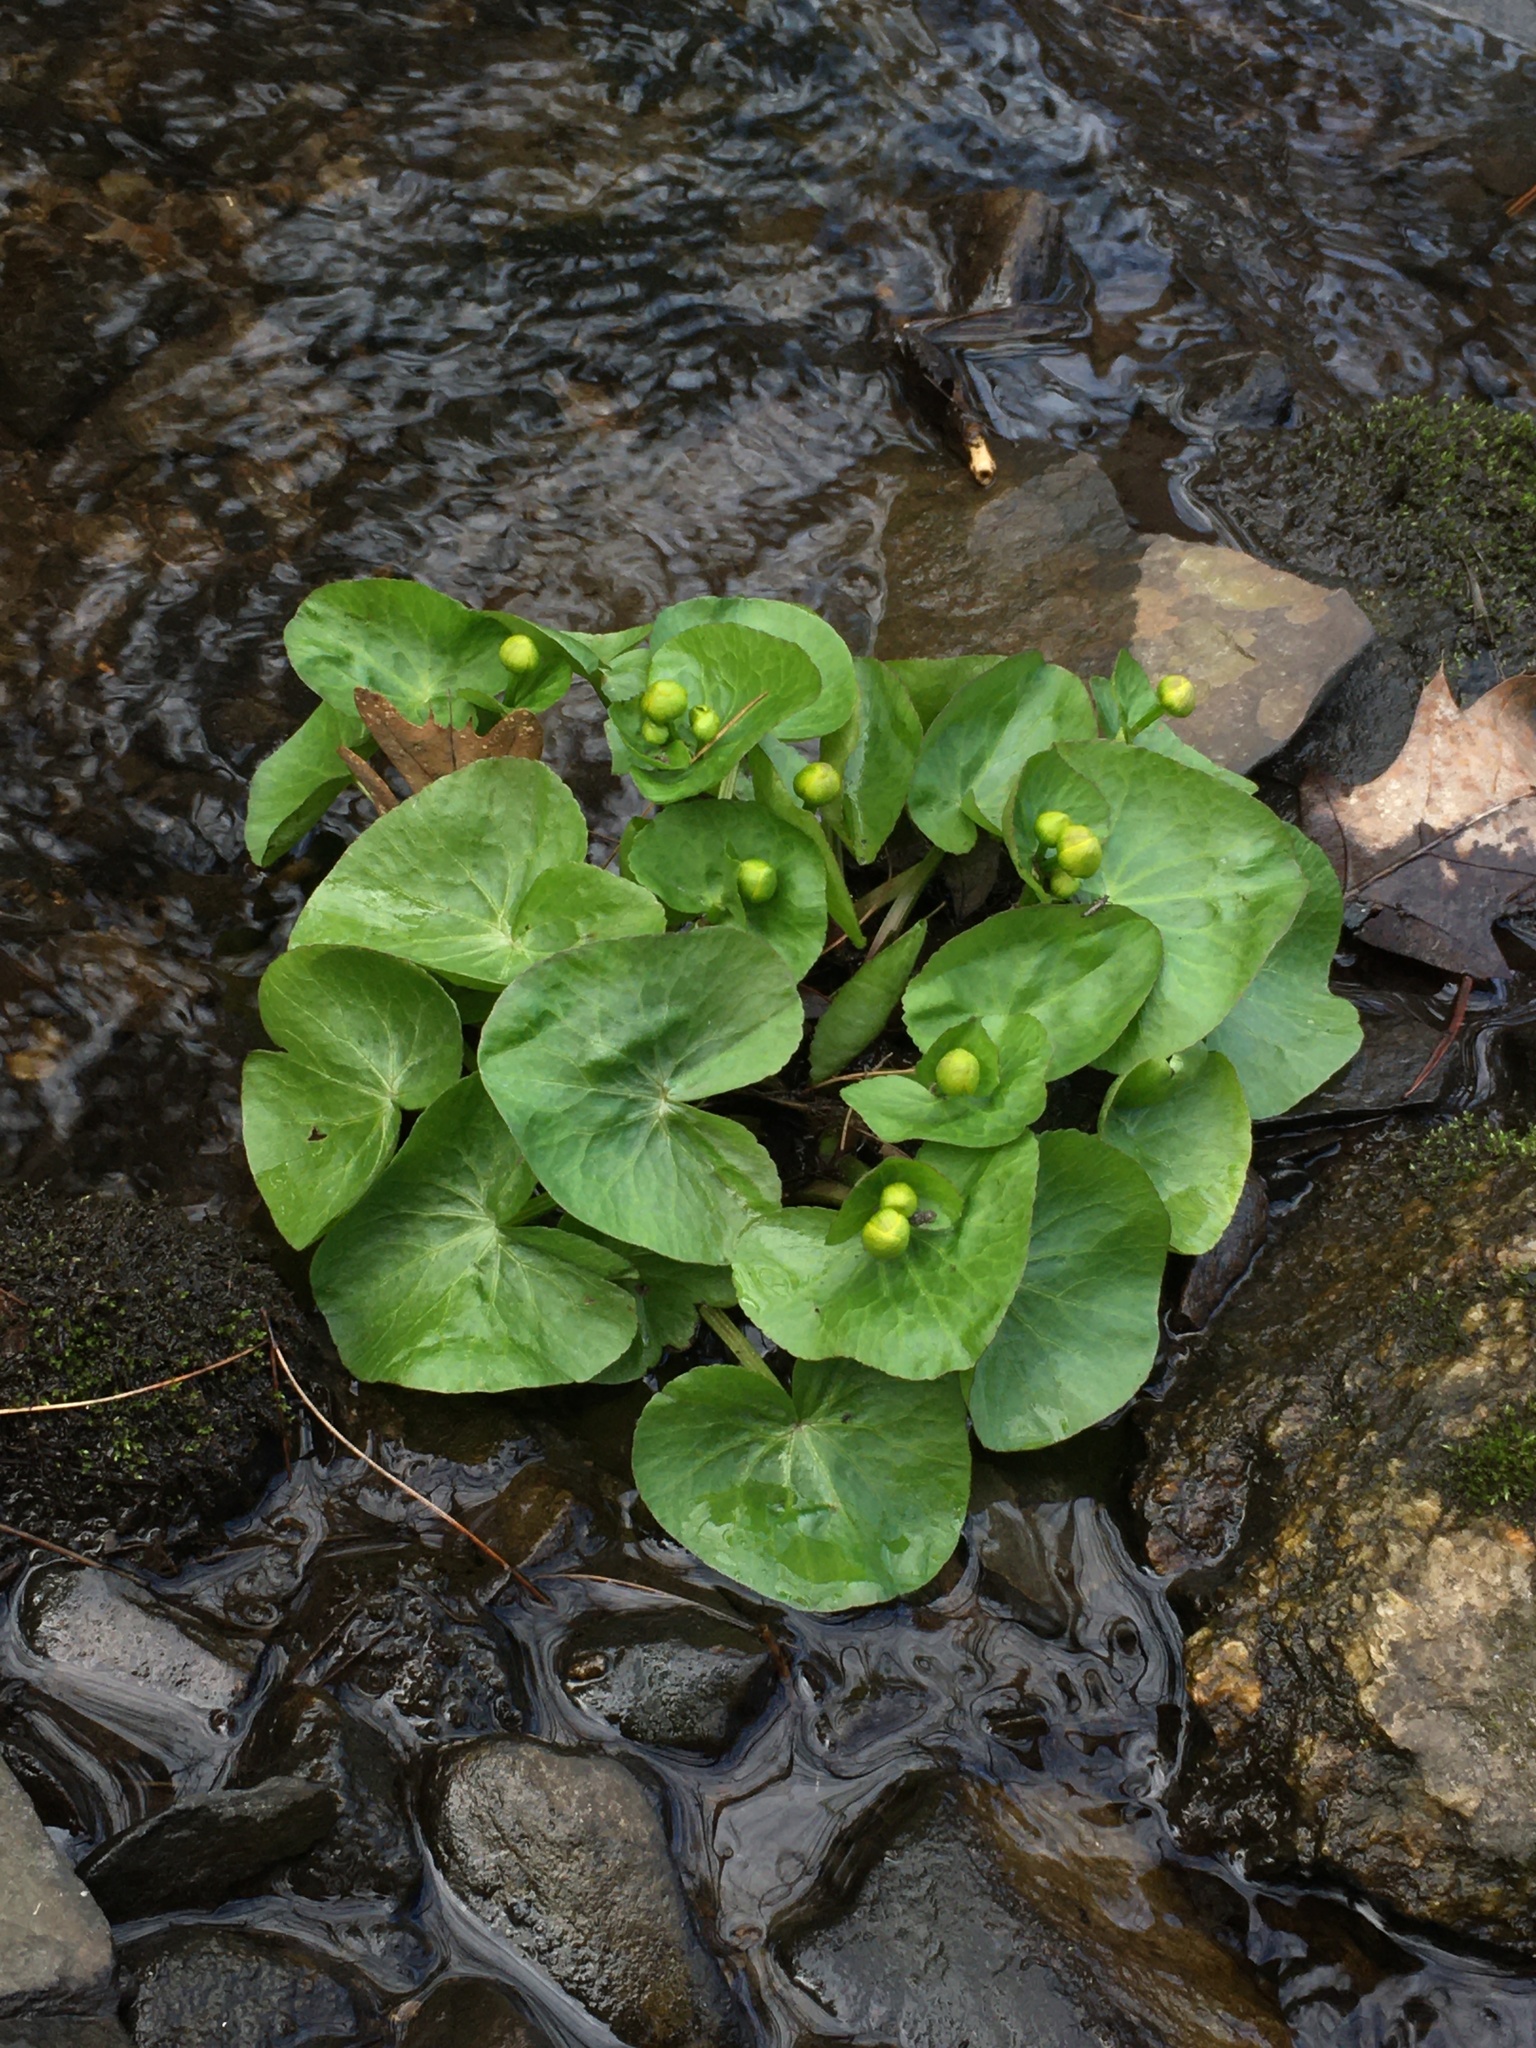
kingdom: Plantae
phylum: Tracheophyta
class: Magnoliopsida
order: Ranunculales
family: Ranunculaceae
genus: Caltha
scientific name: Caltha palustris
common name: Marsh marigold
